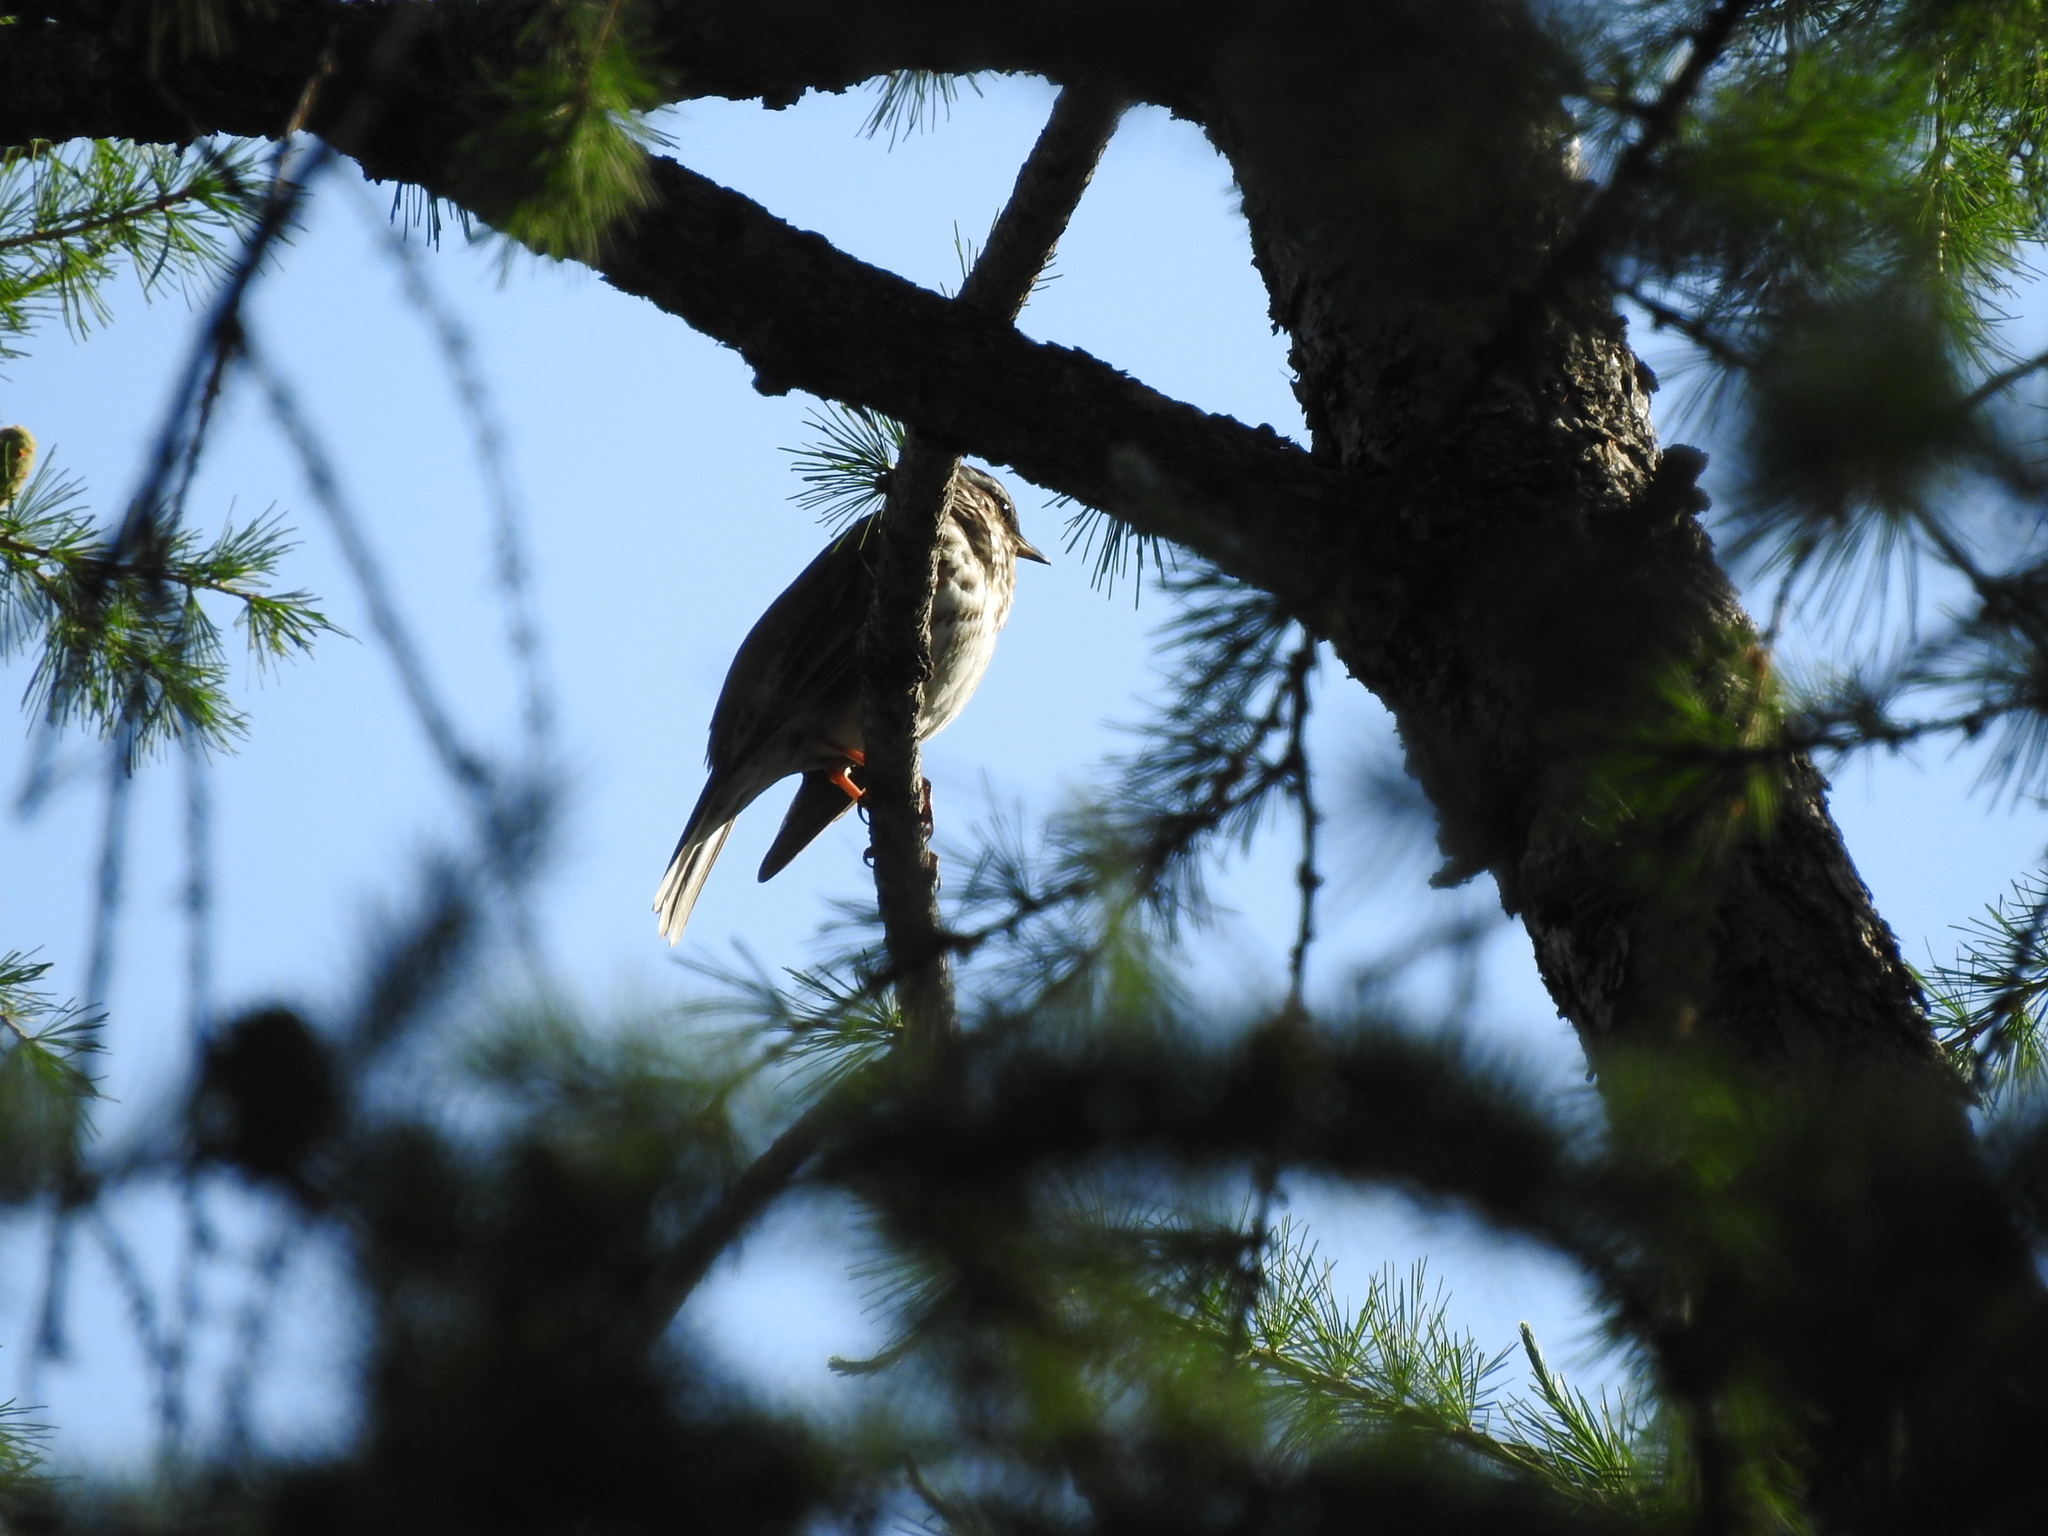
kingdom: Animalia
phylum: Chordata
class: Aves
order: Passeriformes
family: Turdidae
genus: Turdus
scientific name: Turdus iliacus
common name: Redwing
